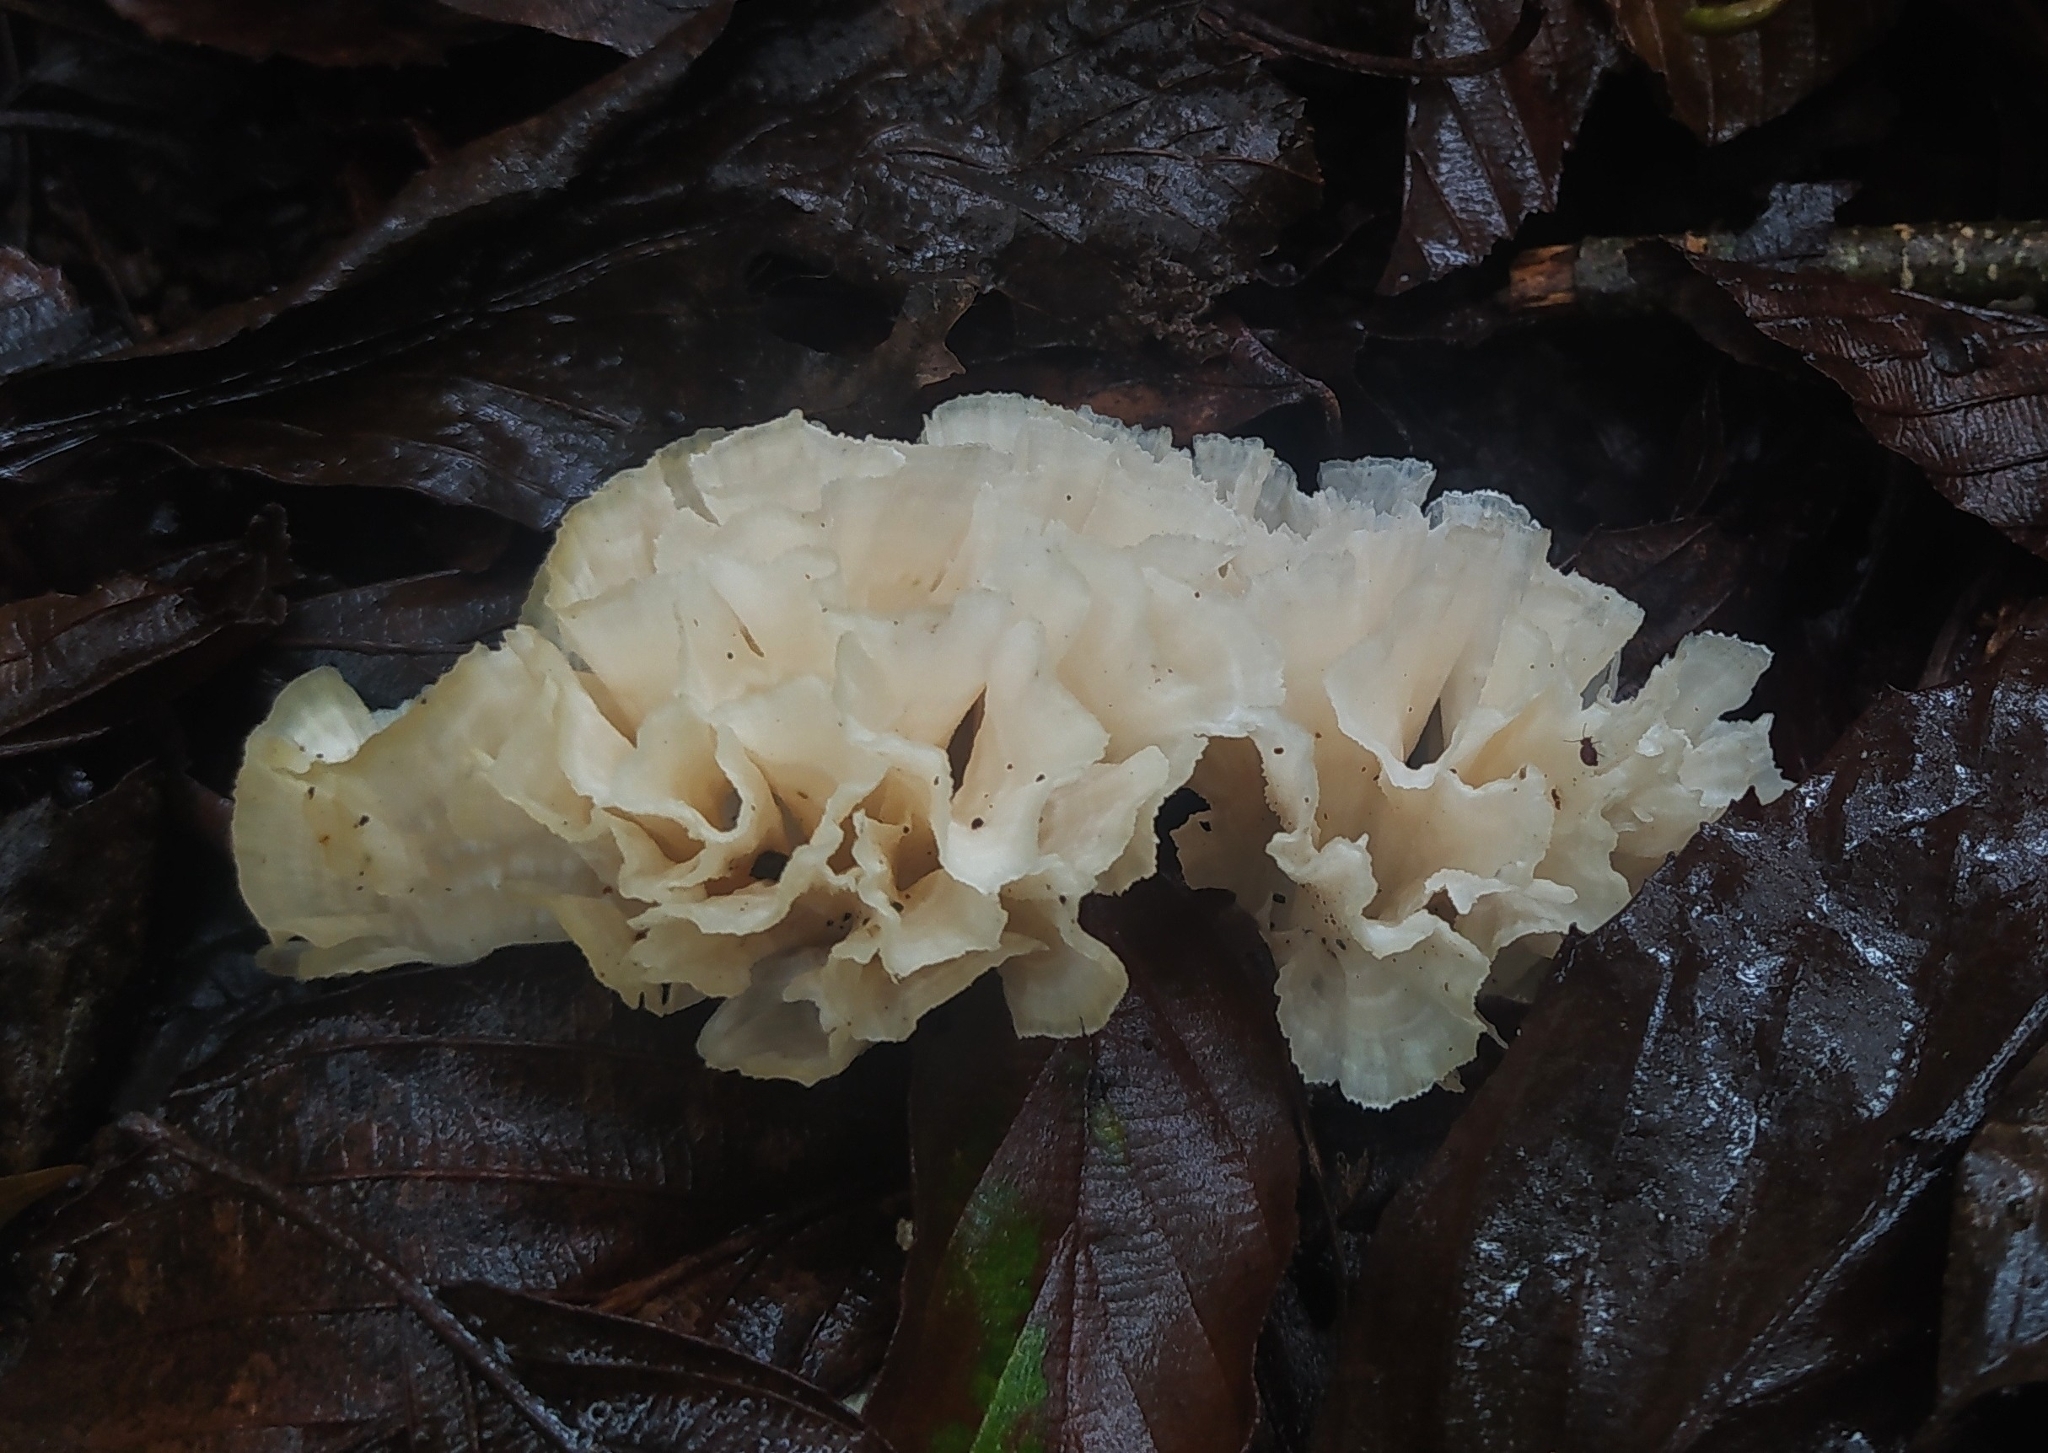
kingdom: Fungi
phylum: Basidiomycota
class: Agaricomycetes
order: Polyporales
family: Irpicaceae
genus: Irpex
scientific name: Irpex rosettiformis
